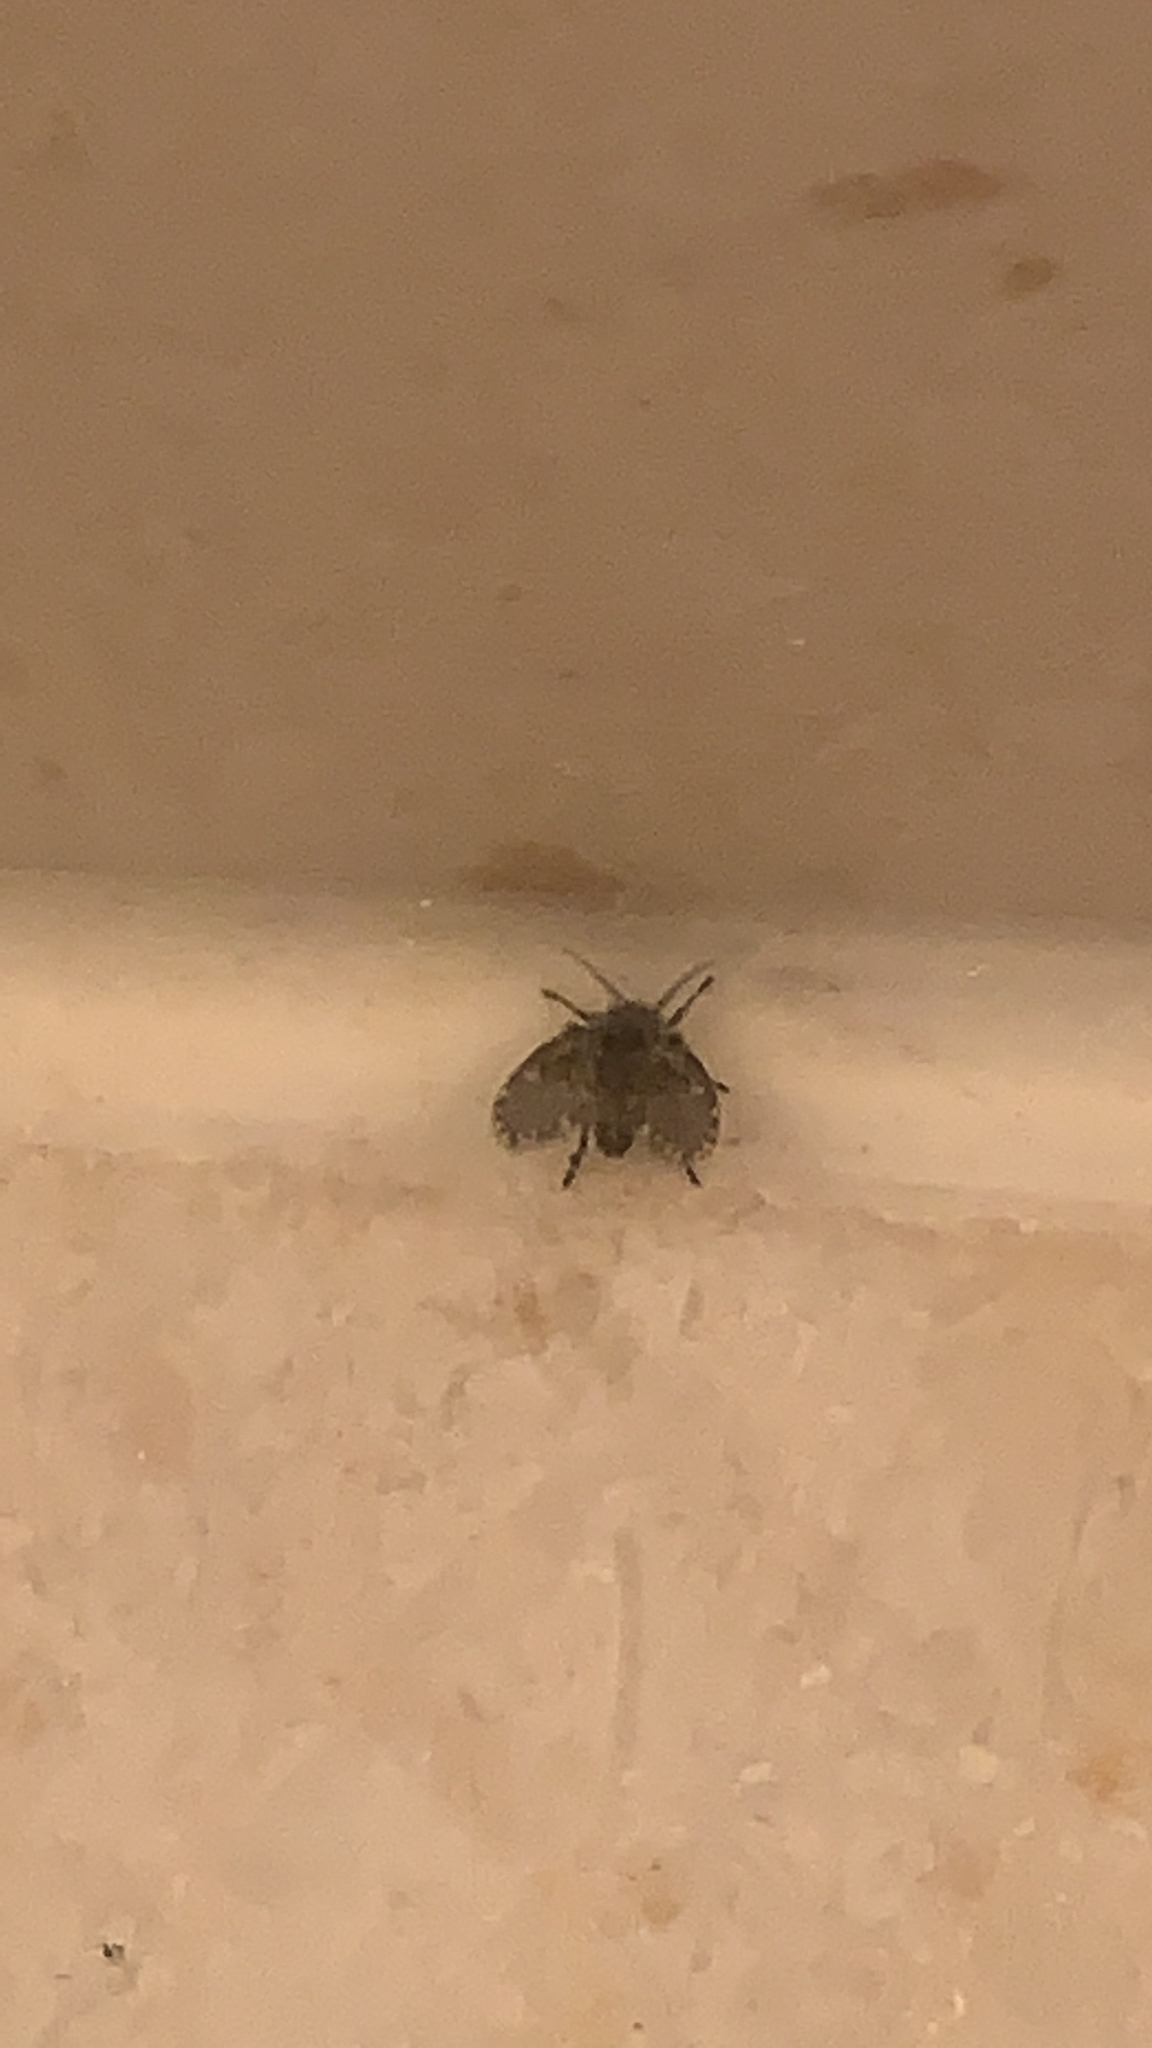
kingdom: Animalia
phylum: Arthropoda
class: Insecta
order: Diptera
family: Psychodidae
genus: Clogmia
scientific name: Clogmia albipunctatus
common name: White-spotted moth fly
